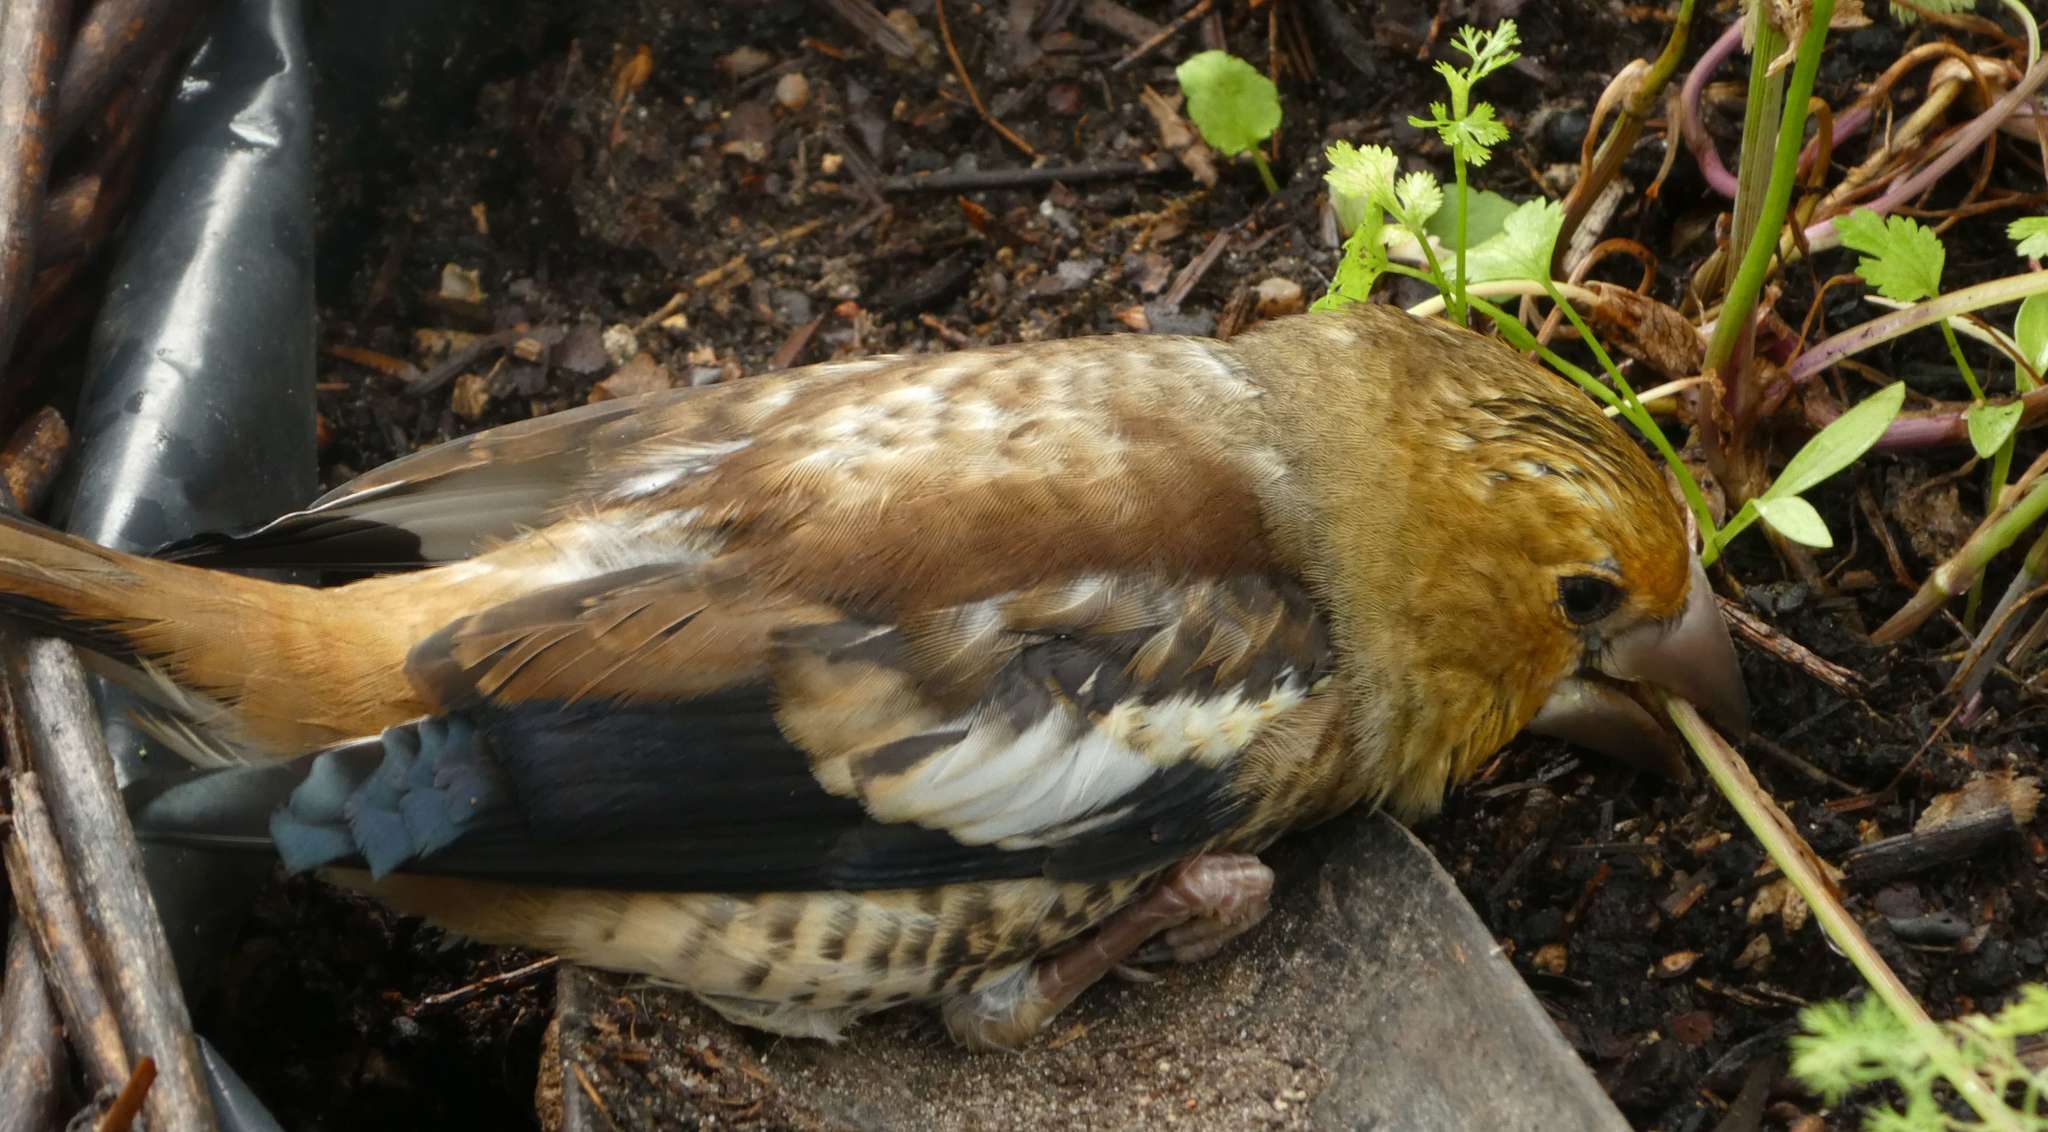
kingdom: Animalia
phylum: Chordata
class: Aves
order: Passeriformes
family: Fringillidae
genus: Coccothraustes
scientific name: Coccothraustes coccothraustes
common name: Hawfinch
